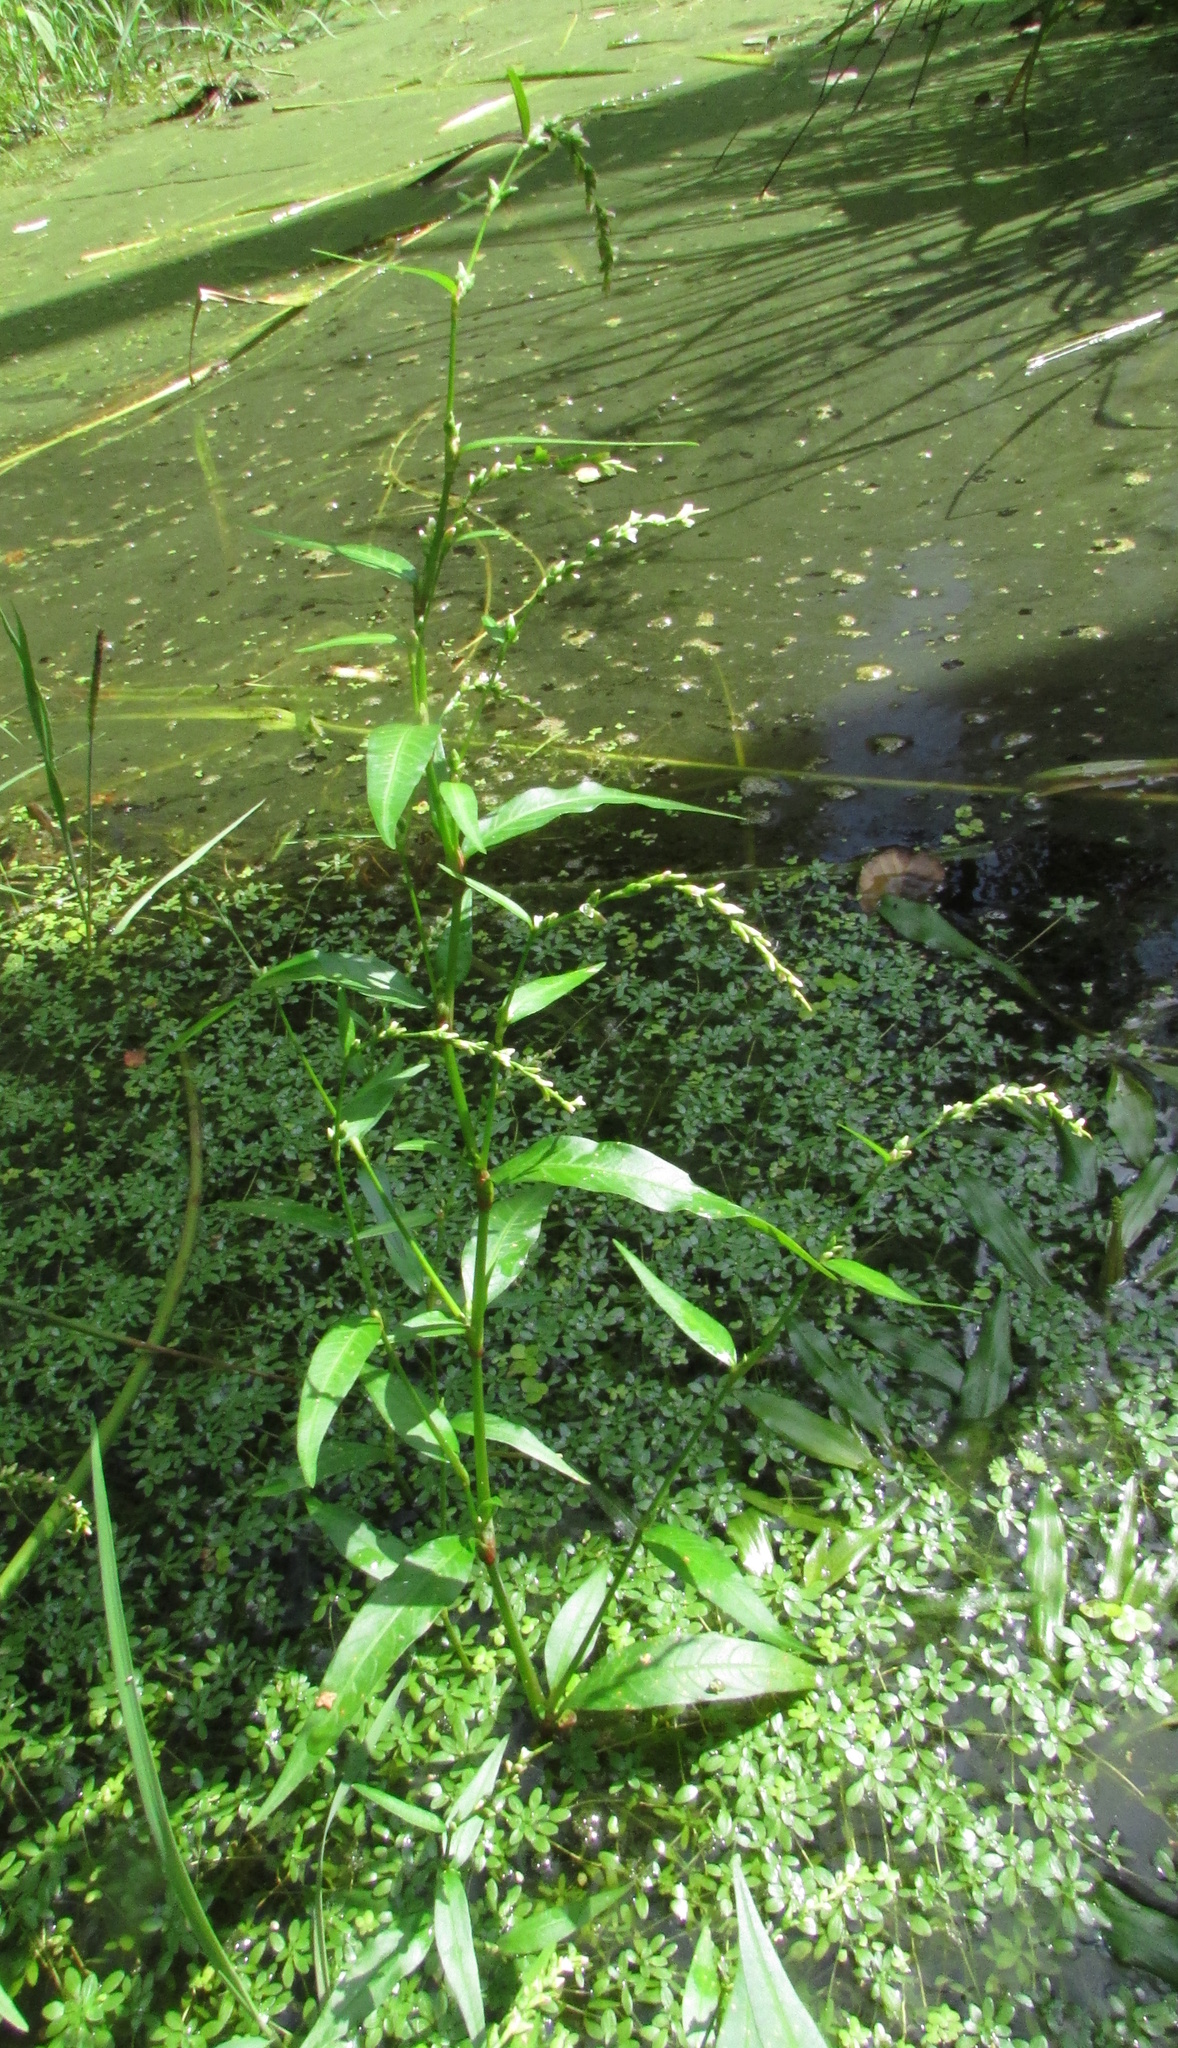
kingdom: Plantae
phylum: Tracheophyta
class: Magnoliopsida
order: Caryophyllales
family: Polygonaceae
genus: Persicaria
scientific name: Persicaria hydropiper
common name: Water-pepper
